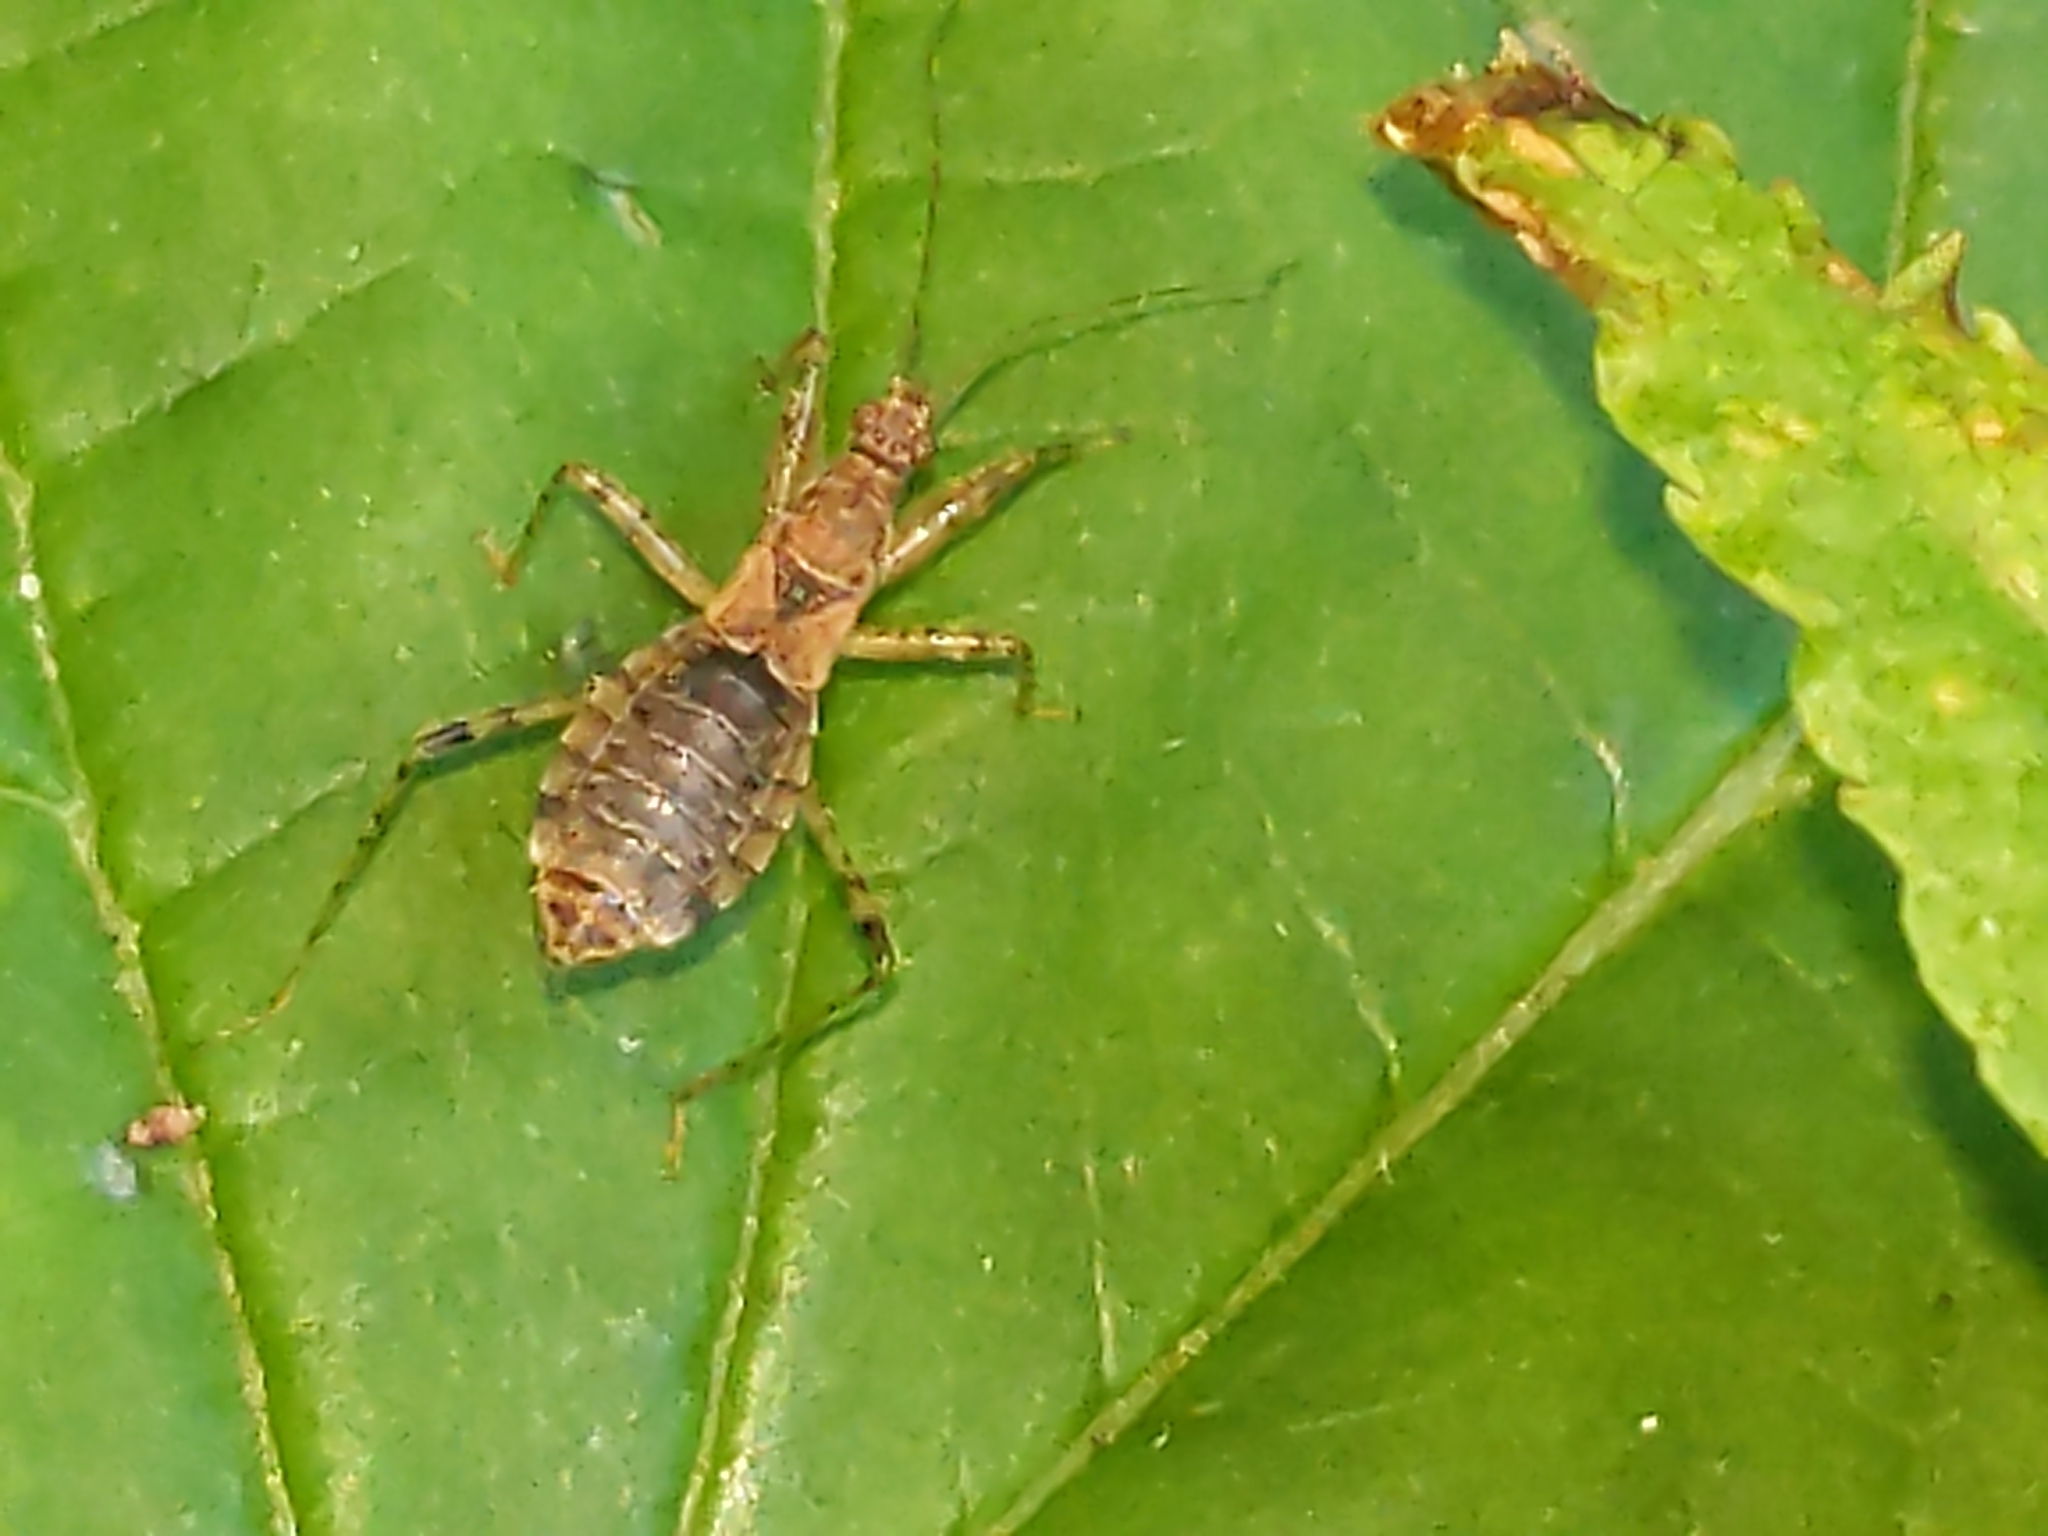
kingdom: Animalia
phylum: Arthropoda
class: Insecta
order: Hemiptera
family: Nabidae
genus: Hoplistoscelis
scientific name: Hoplistoscelis
